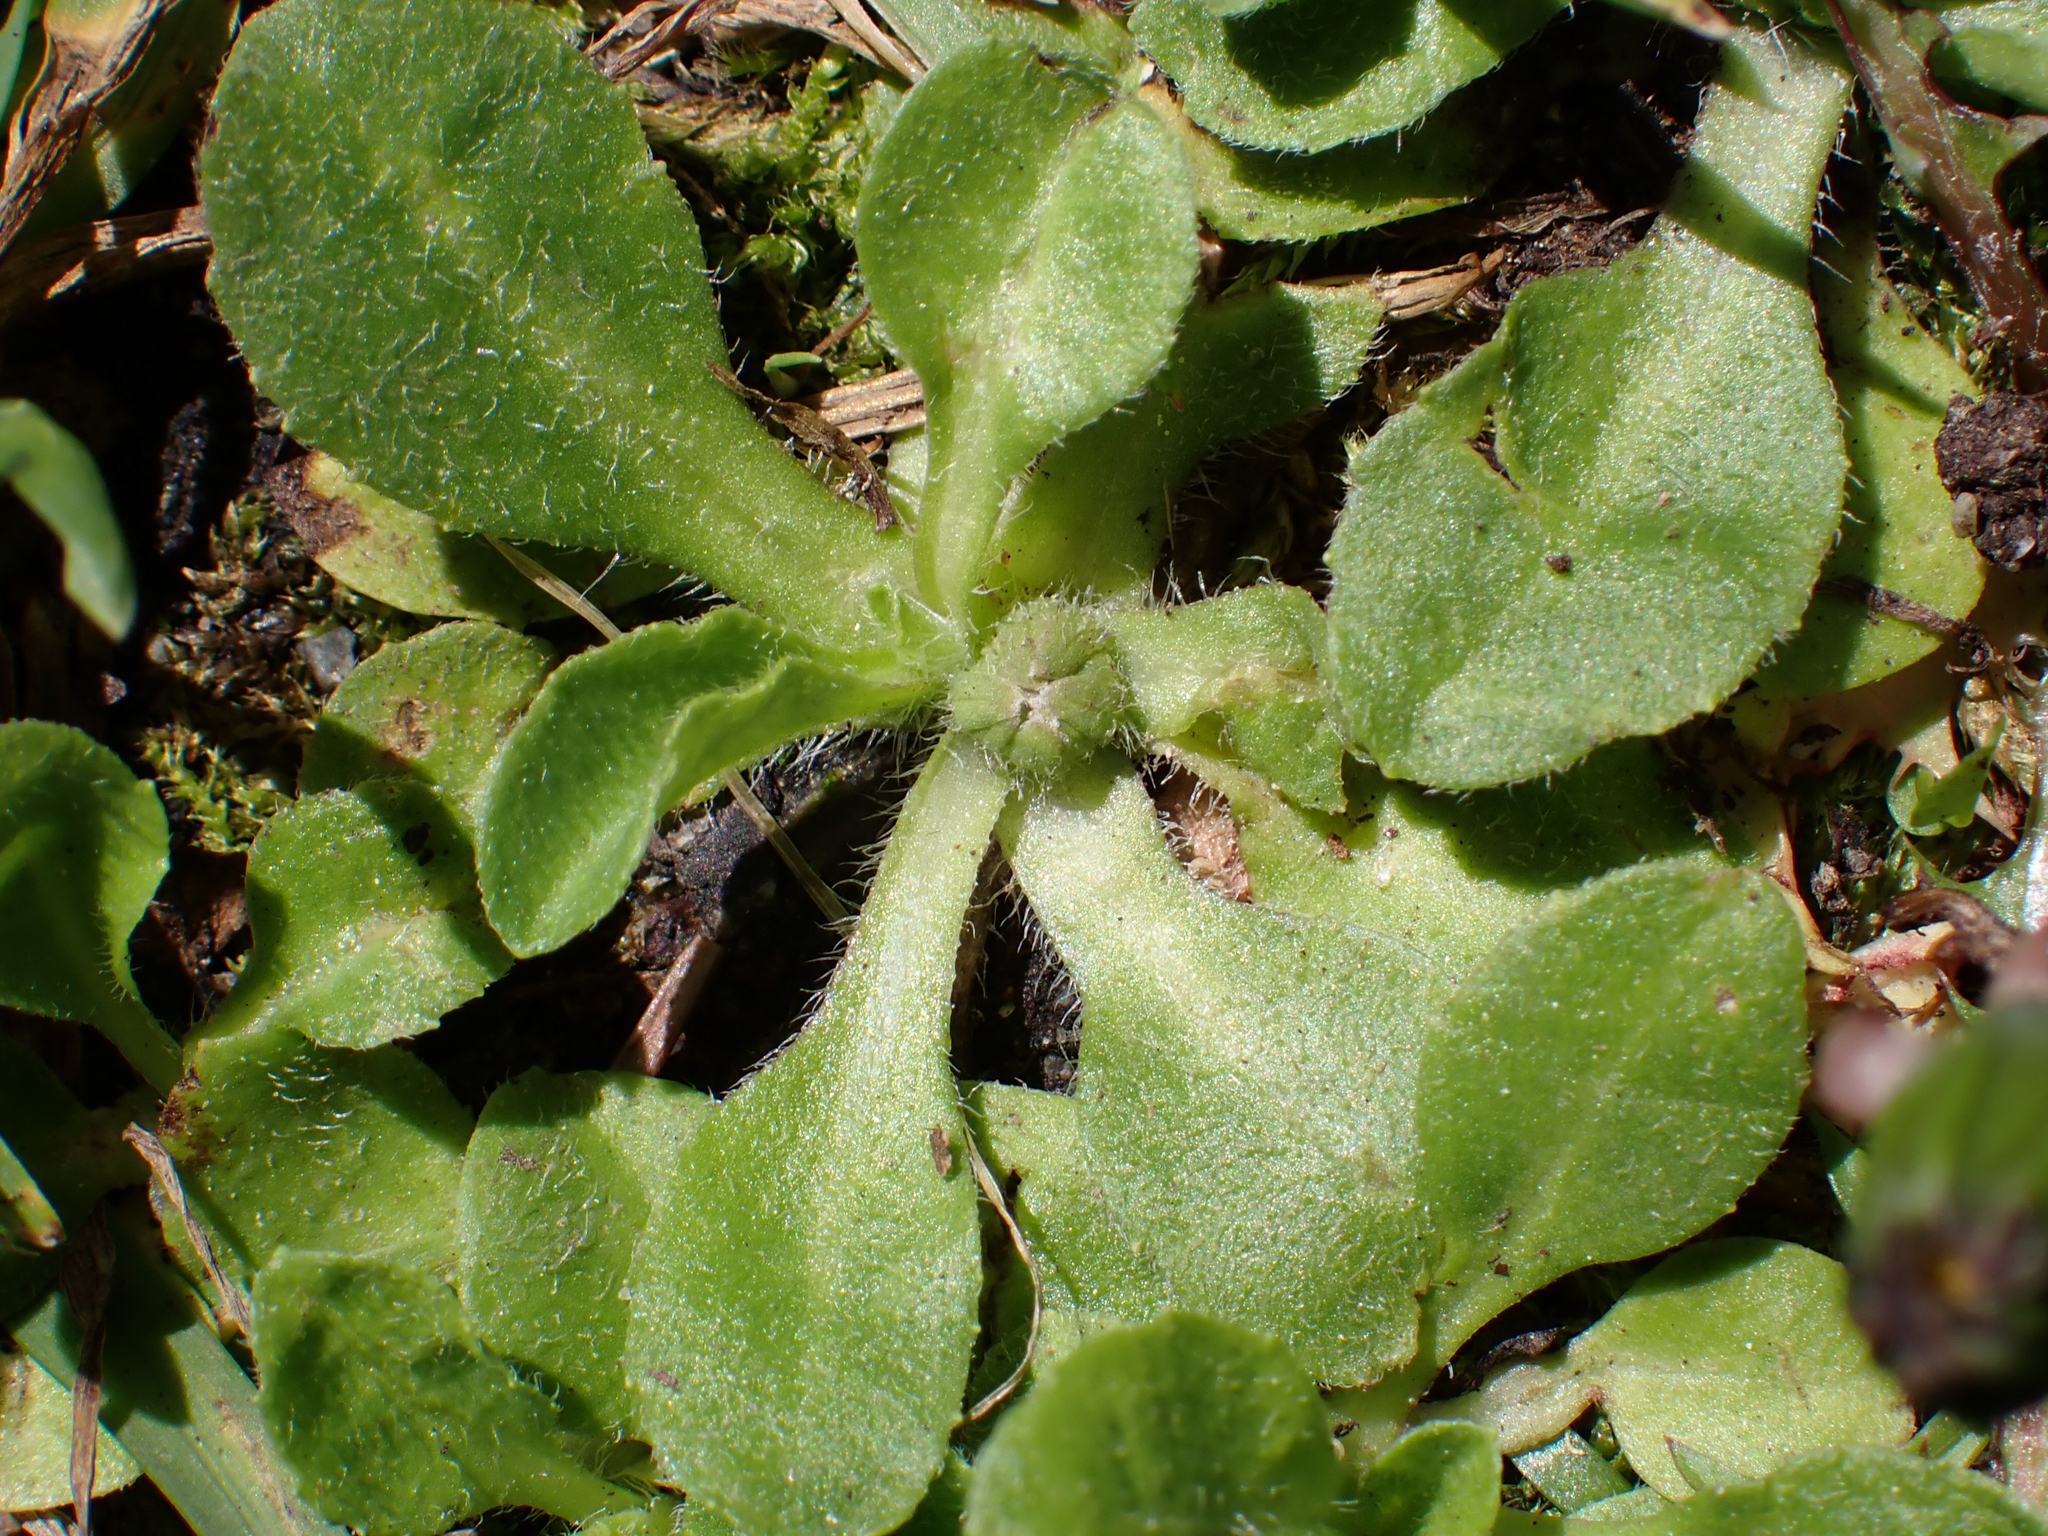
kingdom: Plantae
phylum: Tracheophyta
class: Magnoliopsida
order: Asterales
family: Asteraceae
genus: Bellis
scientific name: Bellis perennis
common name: Lawndaisy
